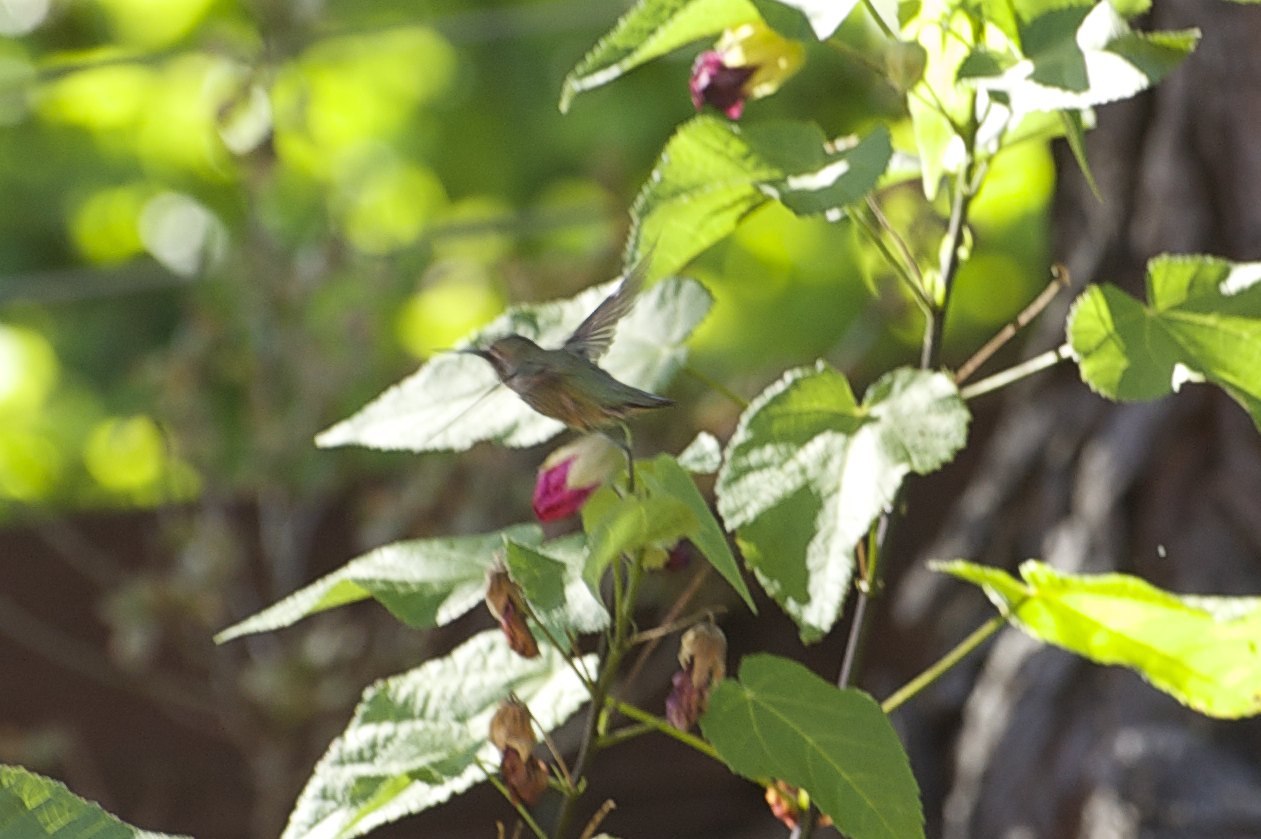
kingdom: Animalia
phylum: Chordata
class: Aves
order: Apodiformes
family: Trochilidae
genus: Calypte
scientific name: Calypte anna
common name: Anna's hummingbird
